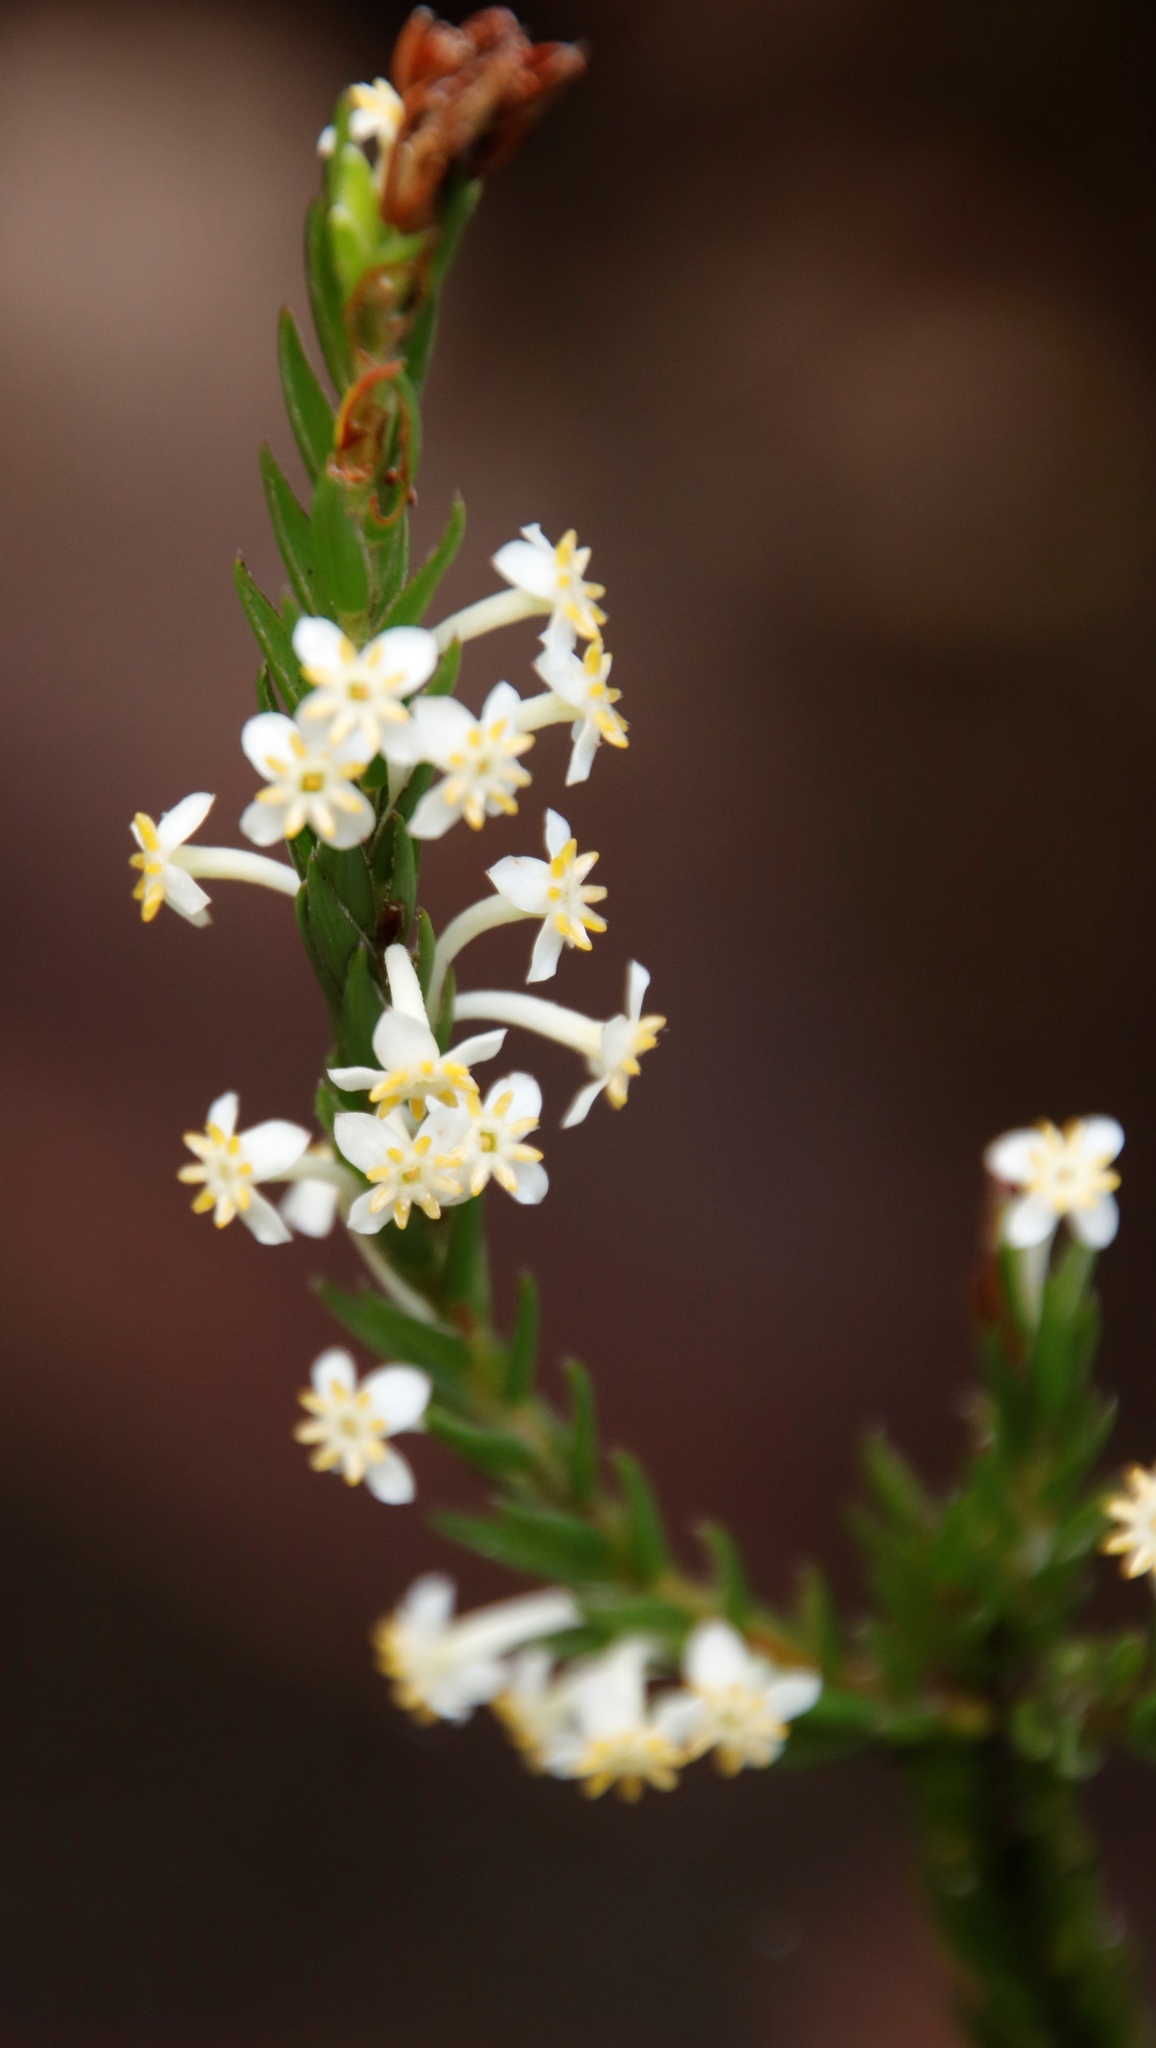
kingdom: Plantae
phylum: Tracheophyta
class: Magnoliopsida
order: Malvales
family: Thymelaeaceae
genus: Struthiola
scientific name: Struthiola ciliata
